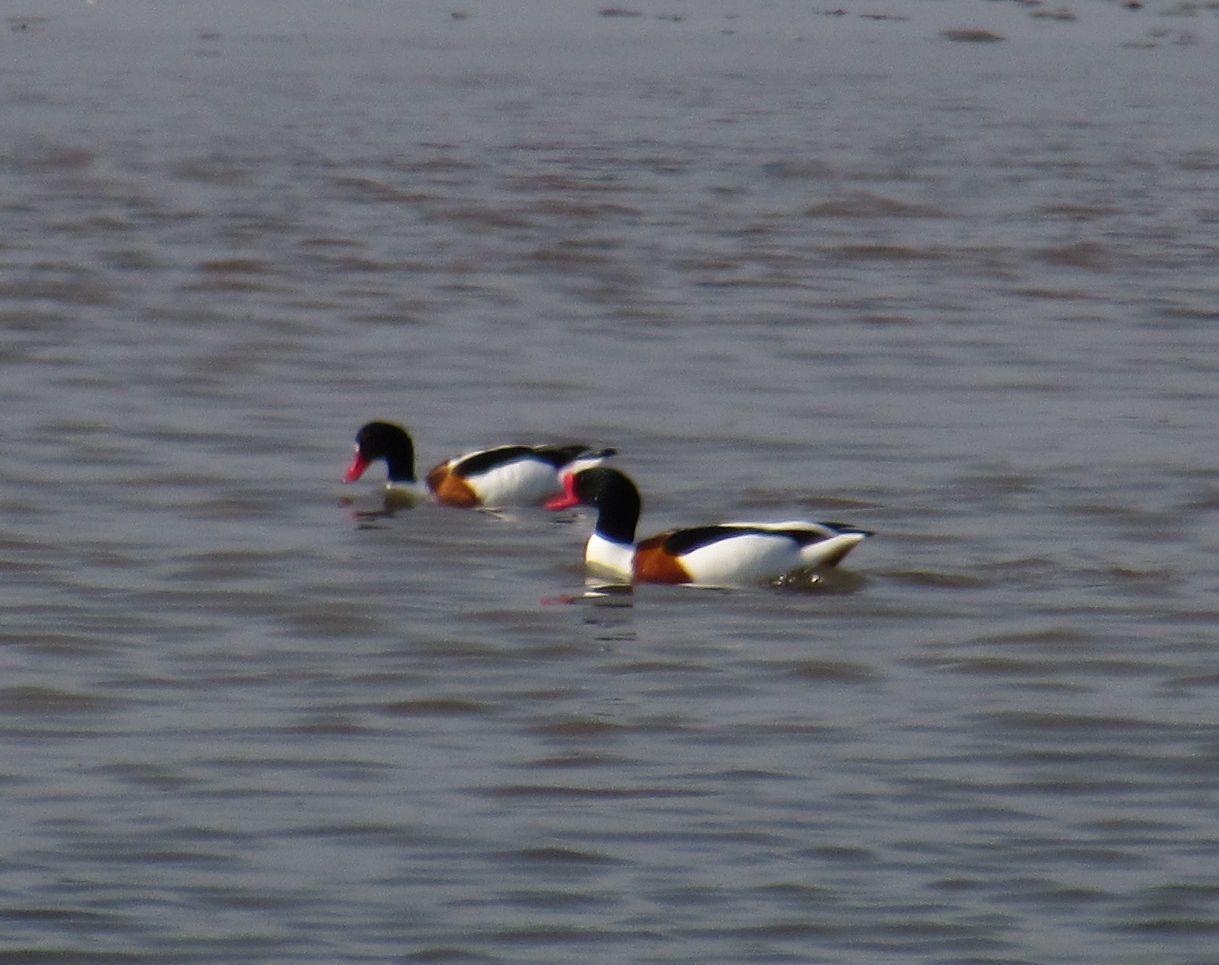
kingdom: Animalia
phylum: Chordata
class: Aves
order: Anseriformes
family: Anatidae
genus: Tadorna
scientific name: Tadorna tadorna
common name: Common shelduck
